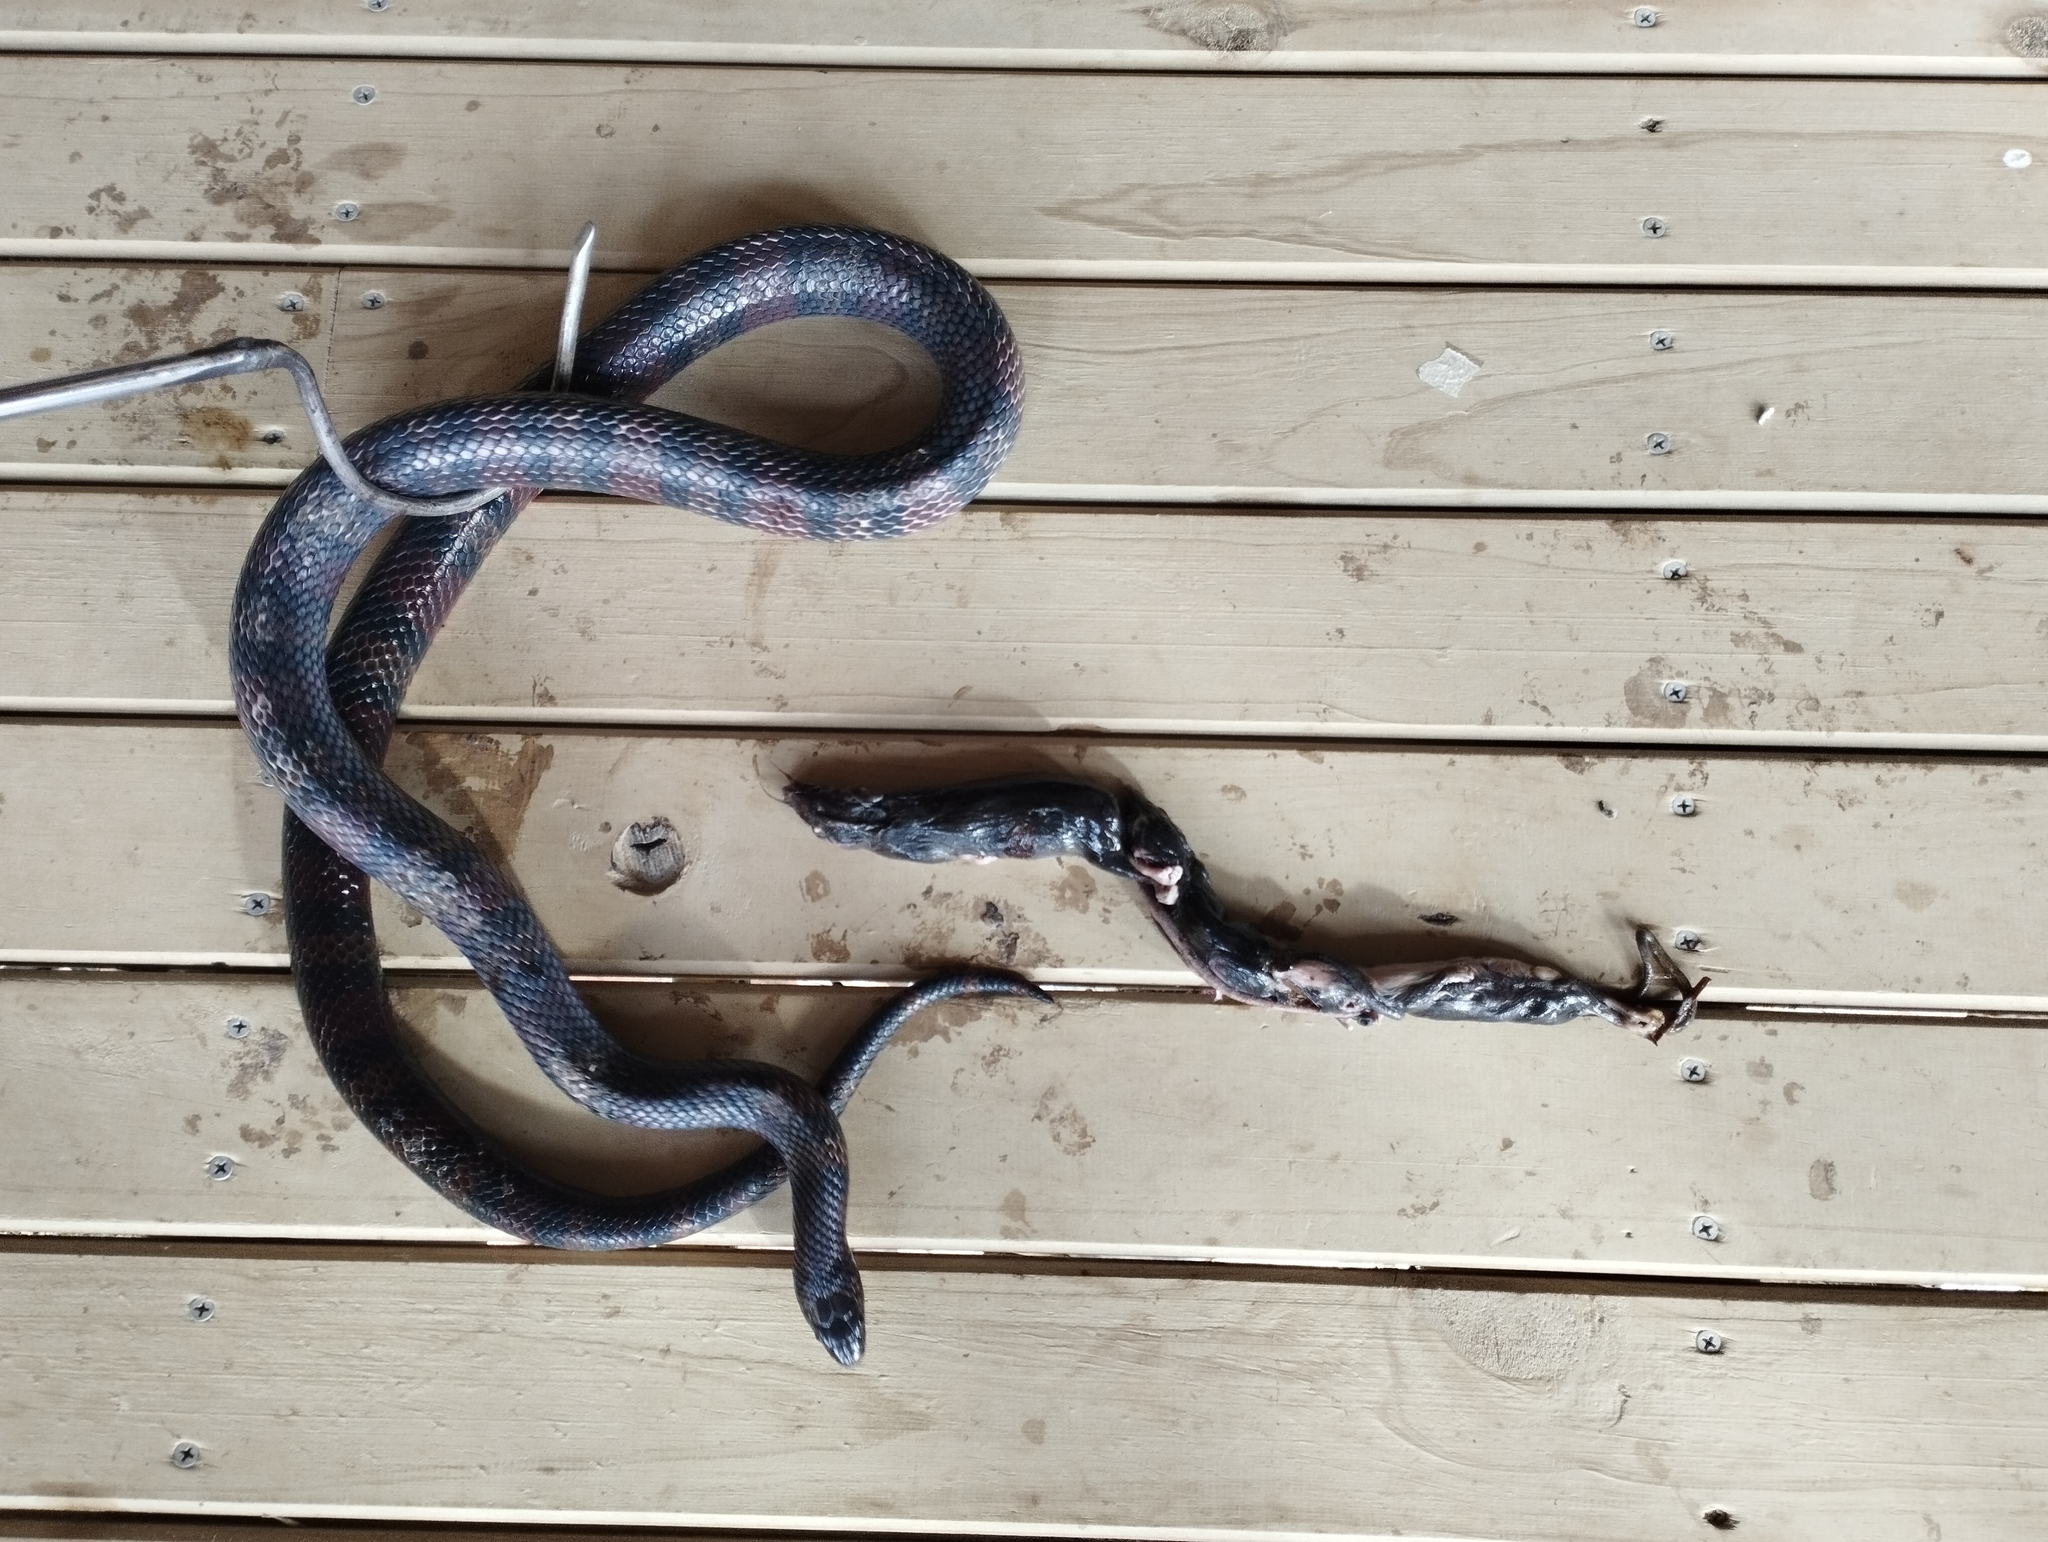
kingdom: Animalia
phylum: Chordata
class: Squamata
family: Colubridae
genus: Lampropeltis
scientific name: Lampropeltis micropholis
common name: Ecuadorian milksnake
